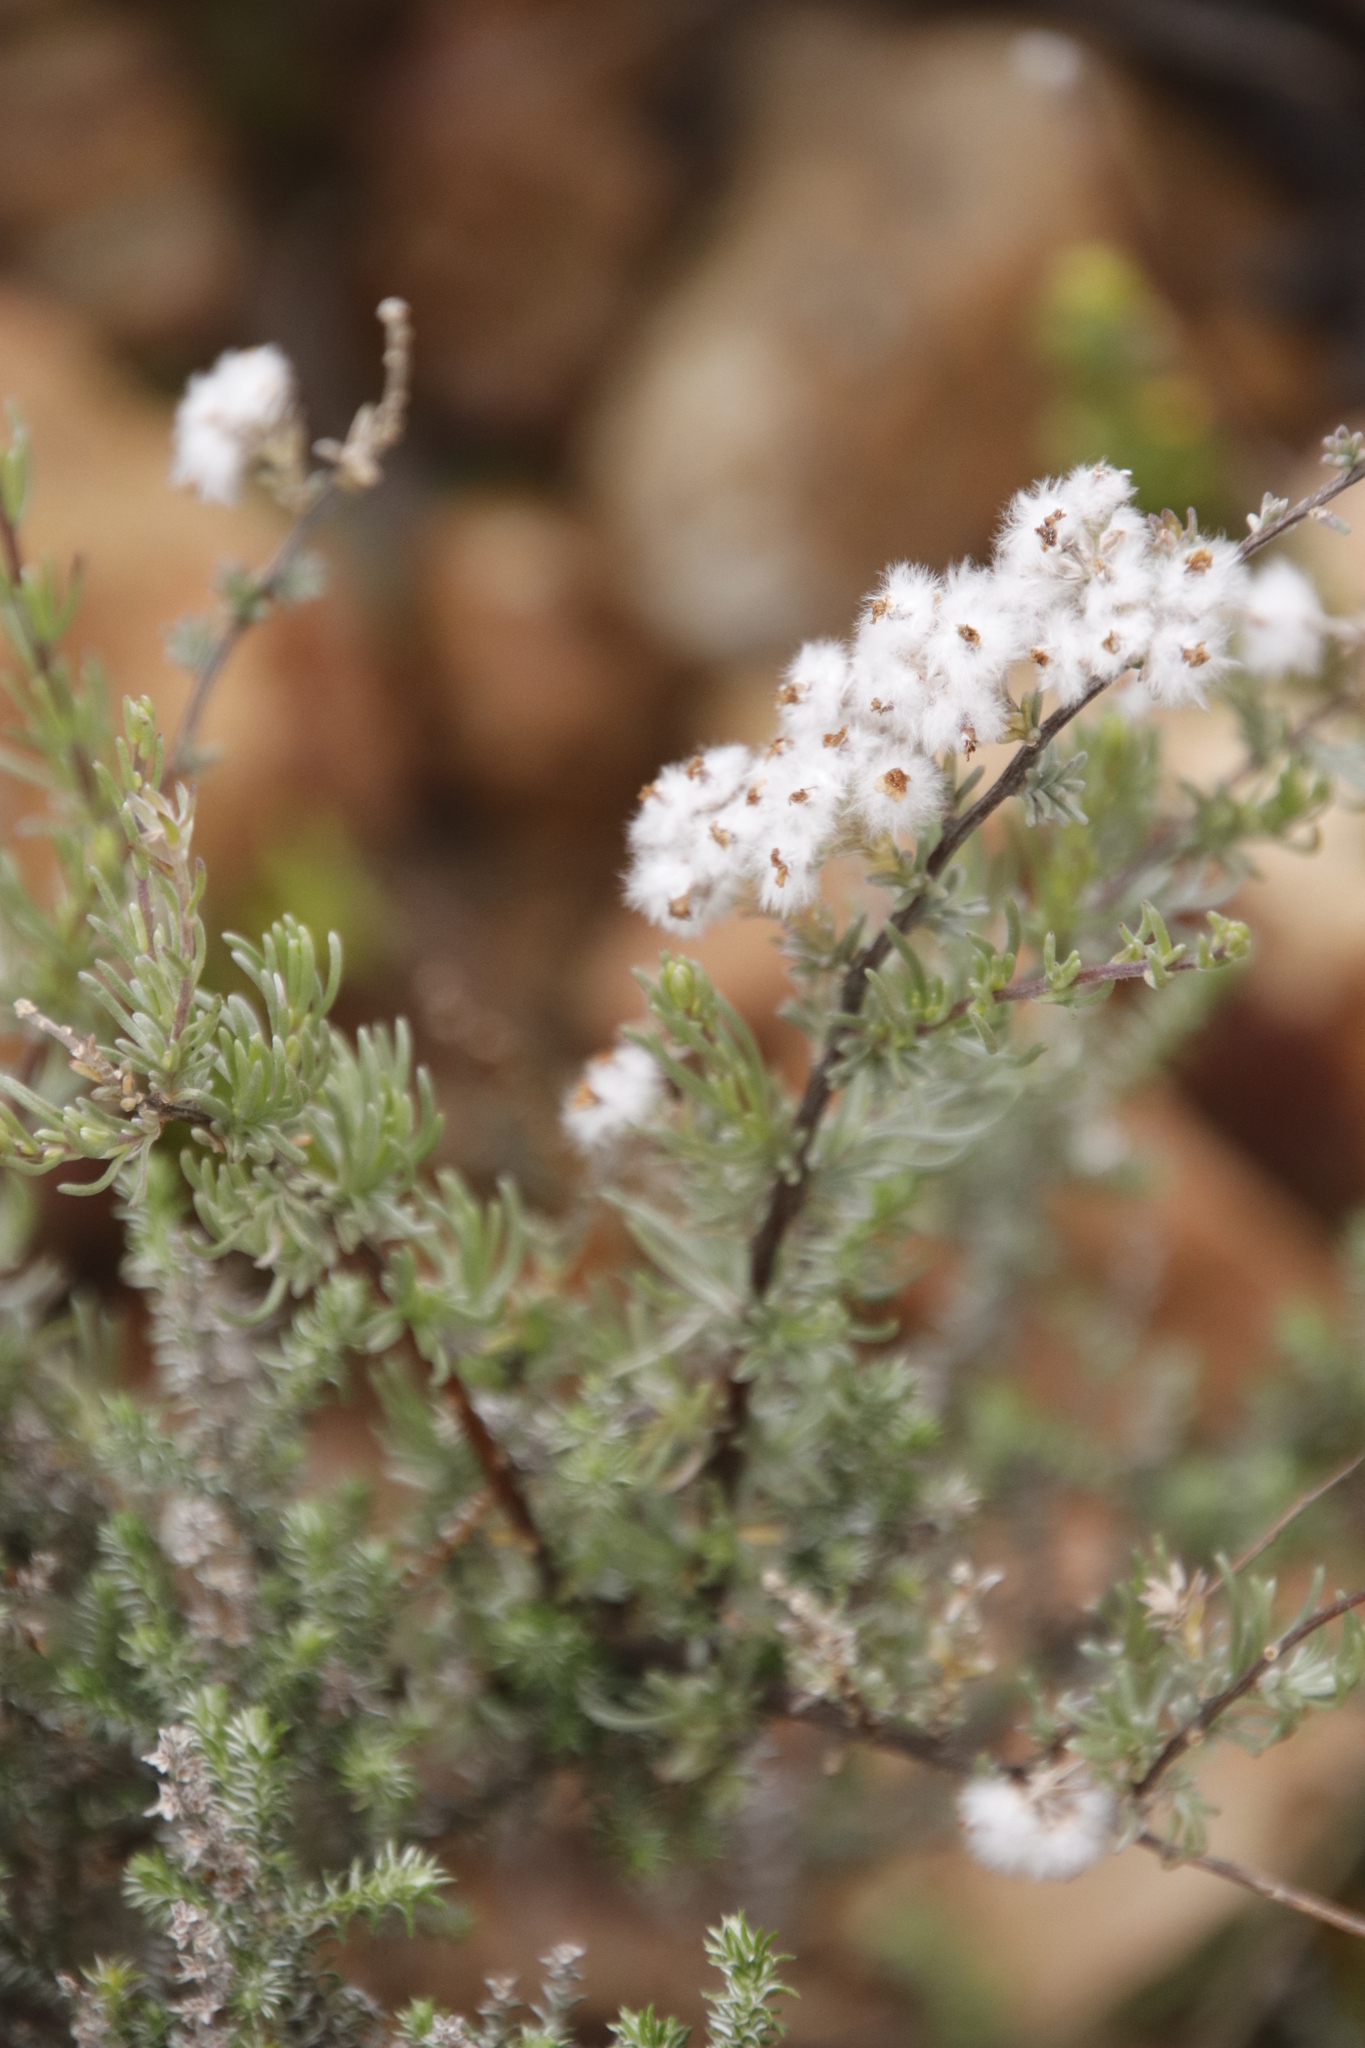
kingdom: Plantae
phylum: Tracheophyta
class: Magnoliopsida
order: Asterales
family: Asteraceae
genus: Eriocephalus
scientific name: Eriocephalus africanus
